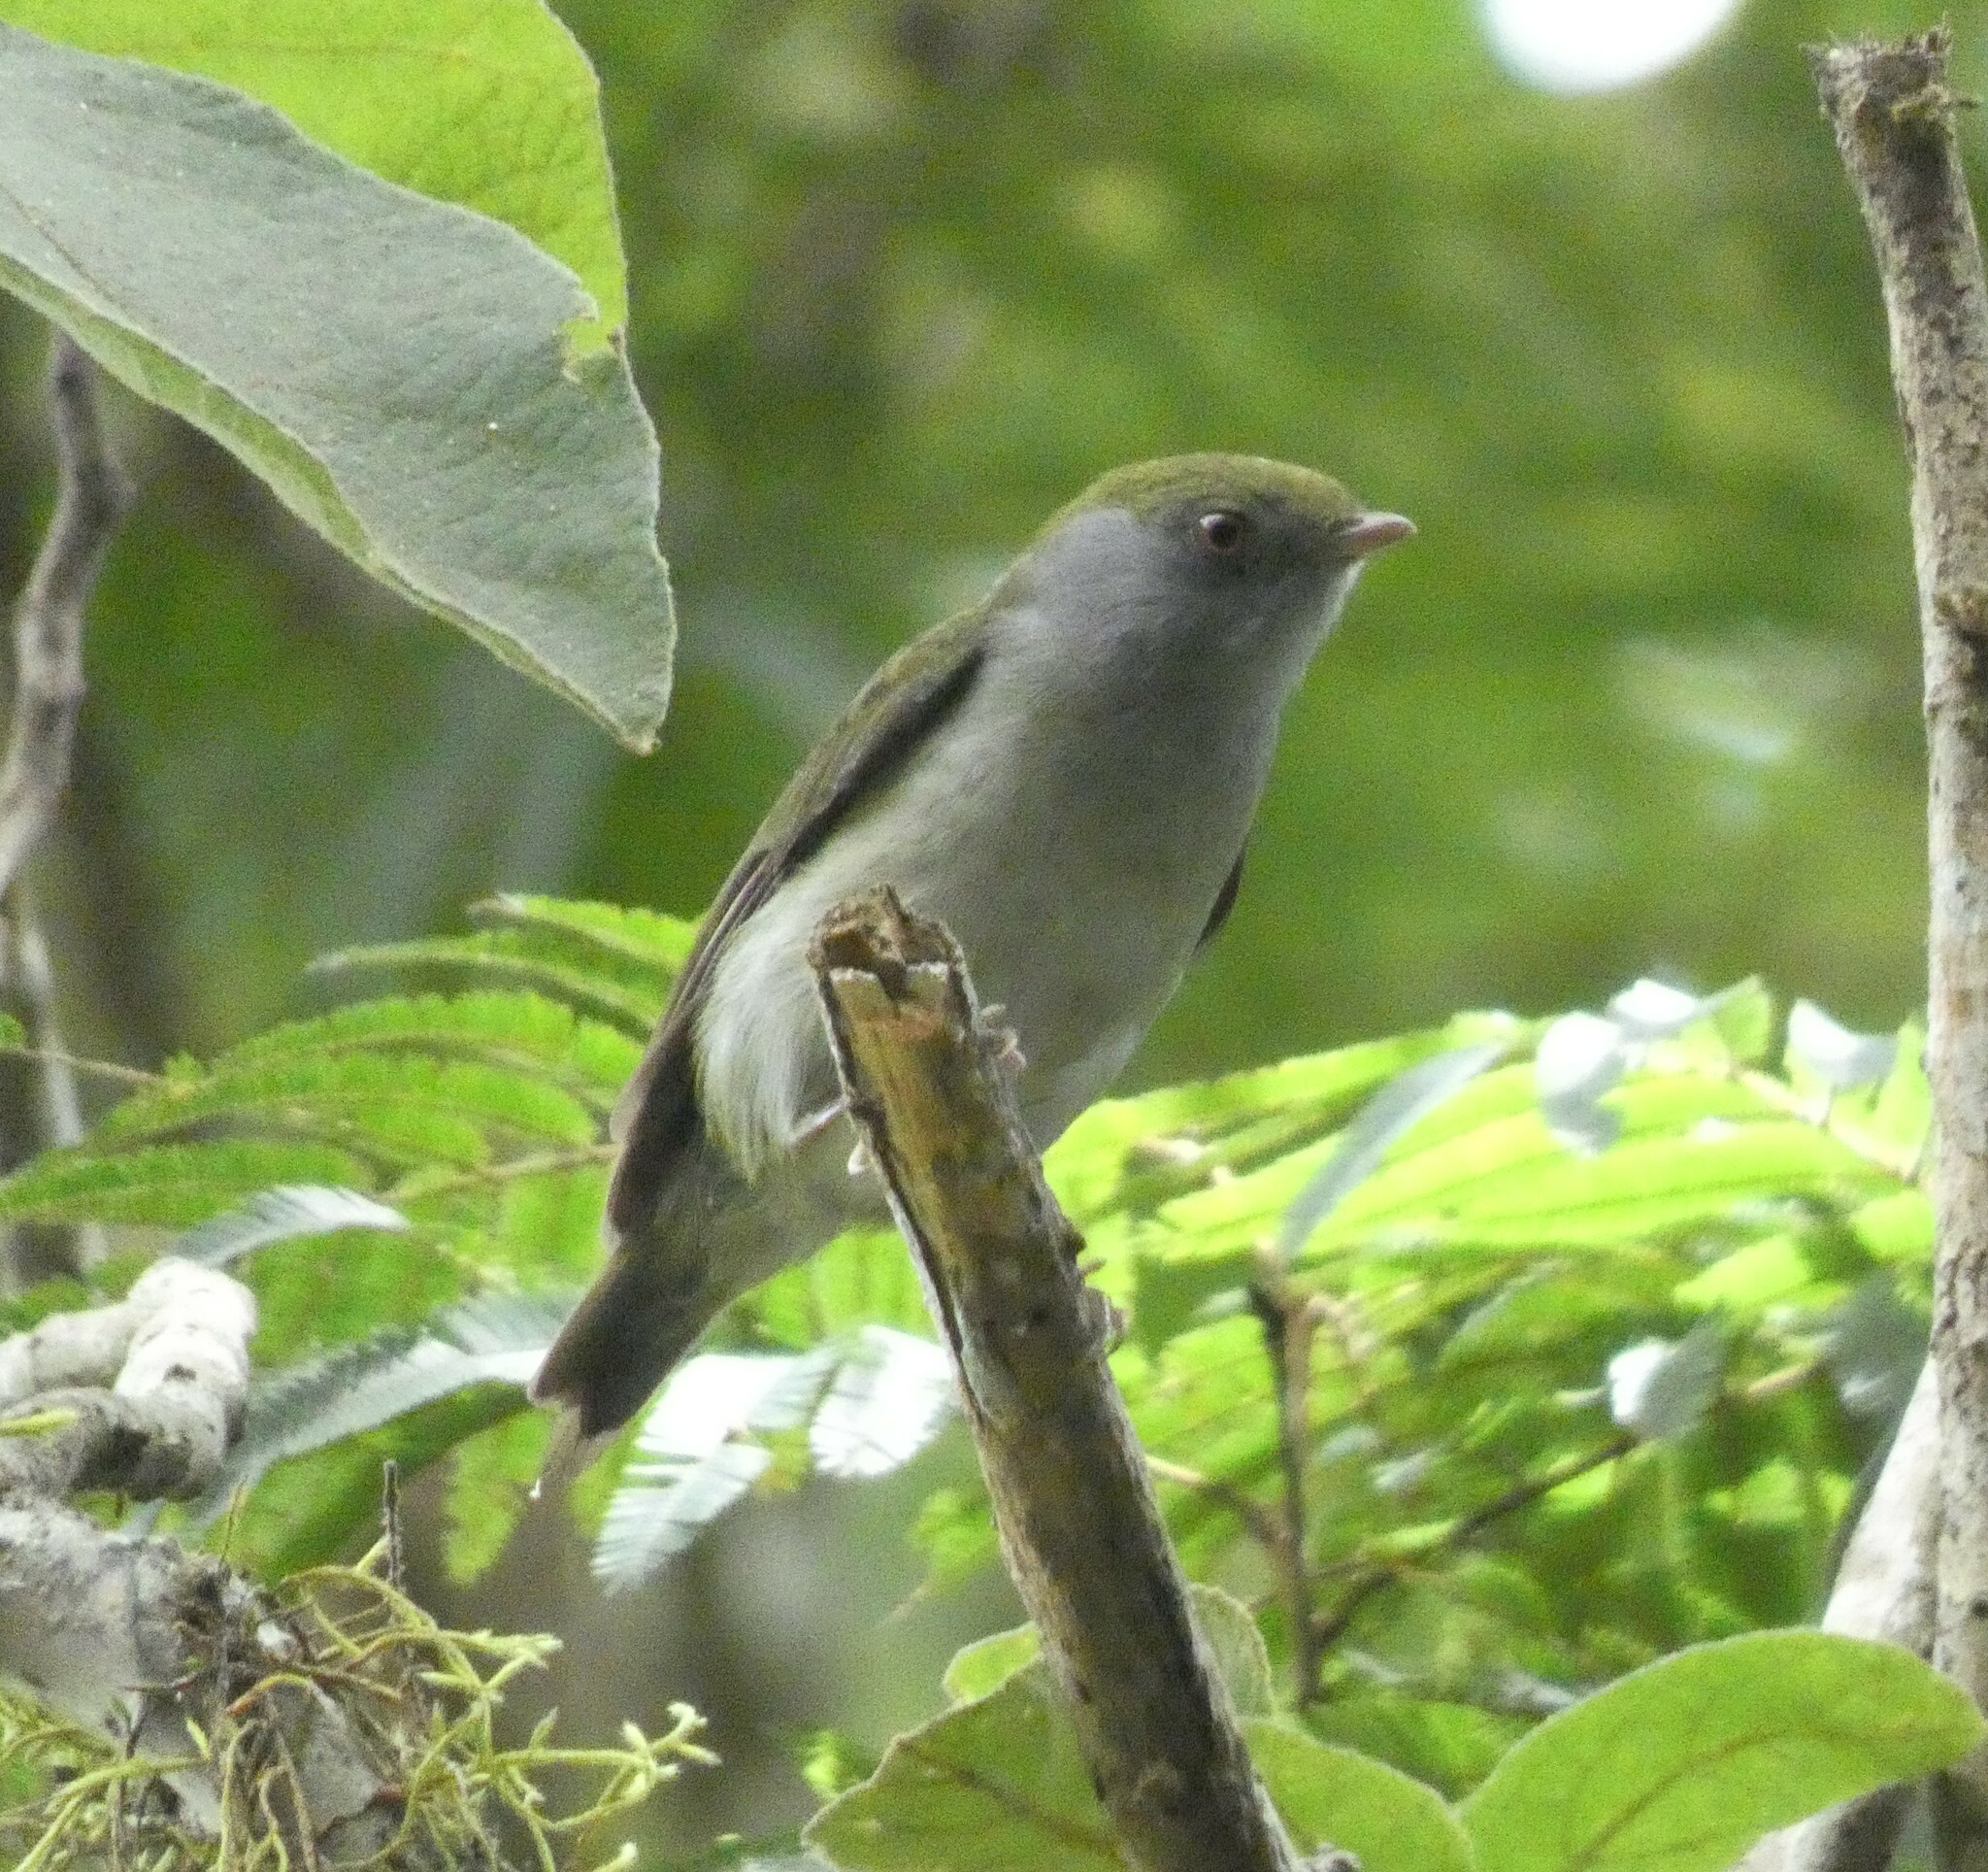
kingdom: Animalia
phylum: Chordata
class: Aves
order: Passeriformes
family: Pipridae
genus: Ilicura
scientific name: Ilicura militaris
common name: Pin-tailed manakin
